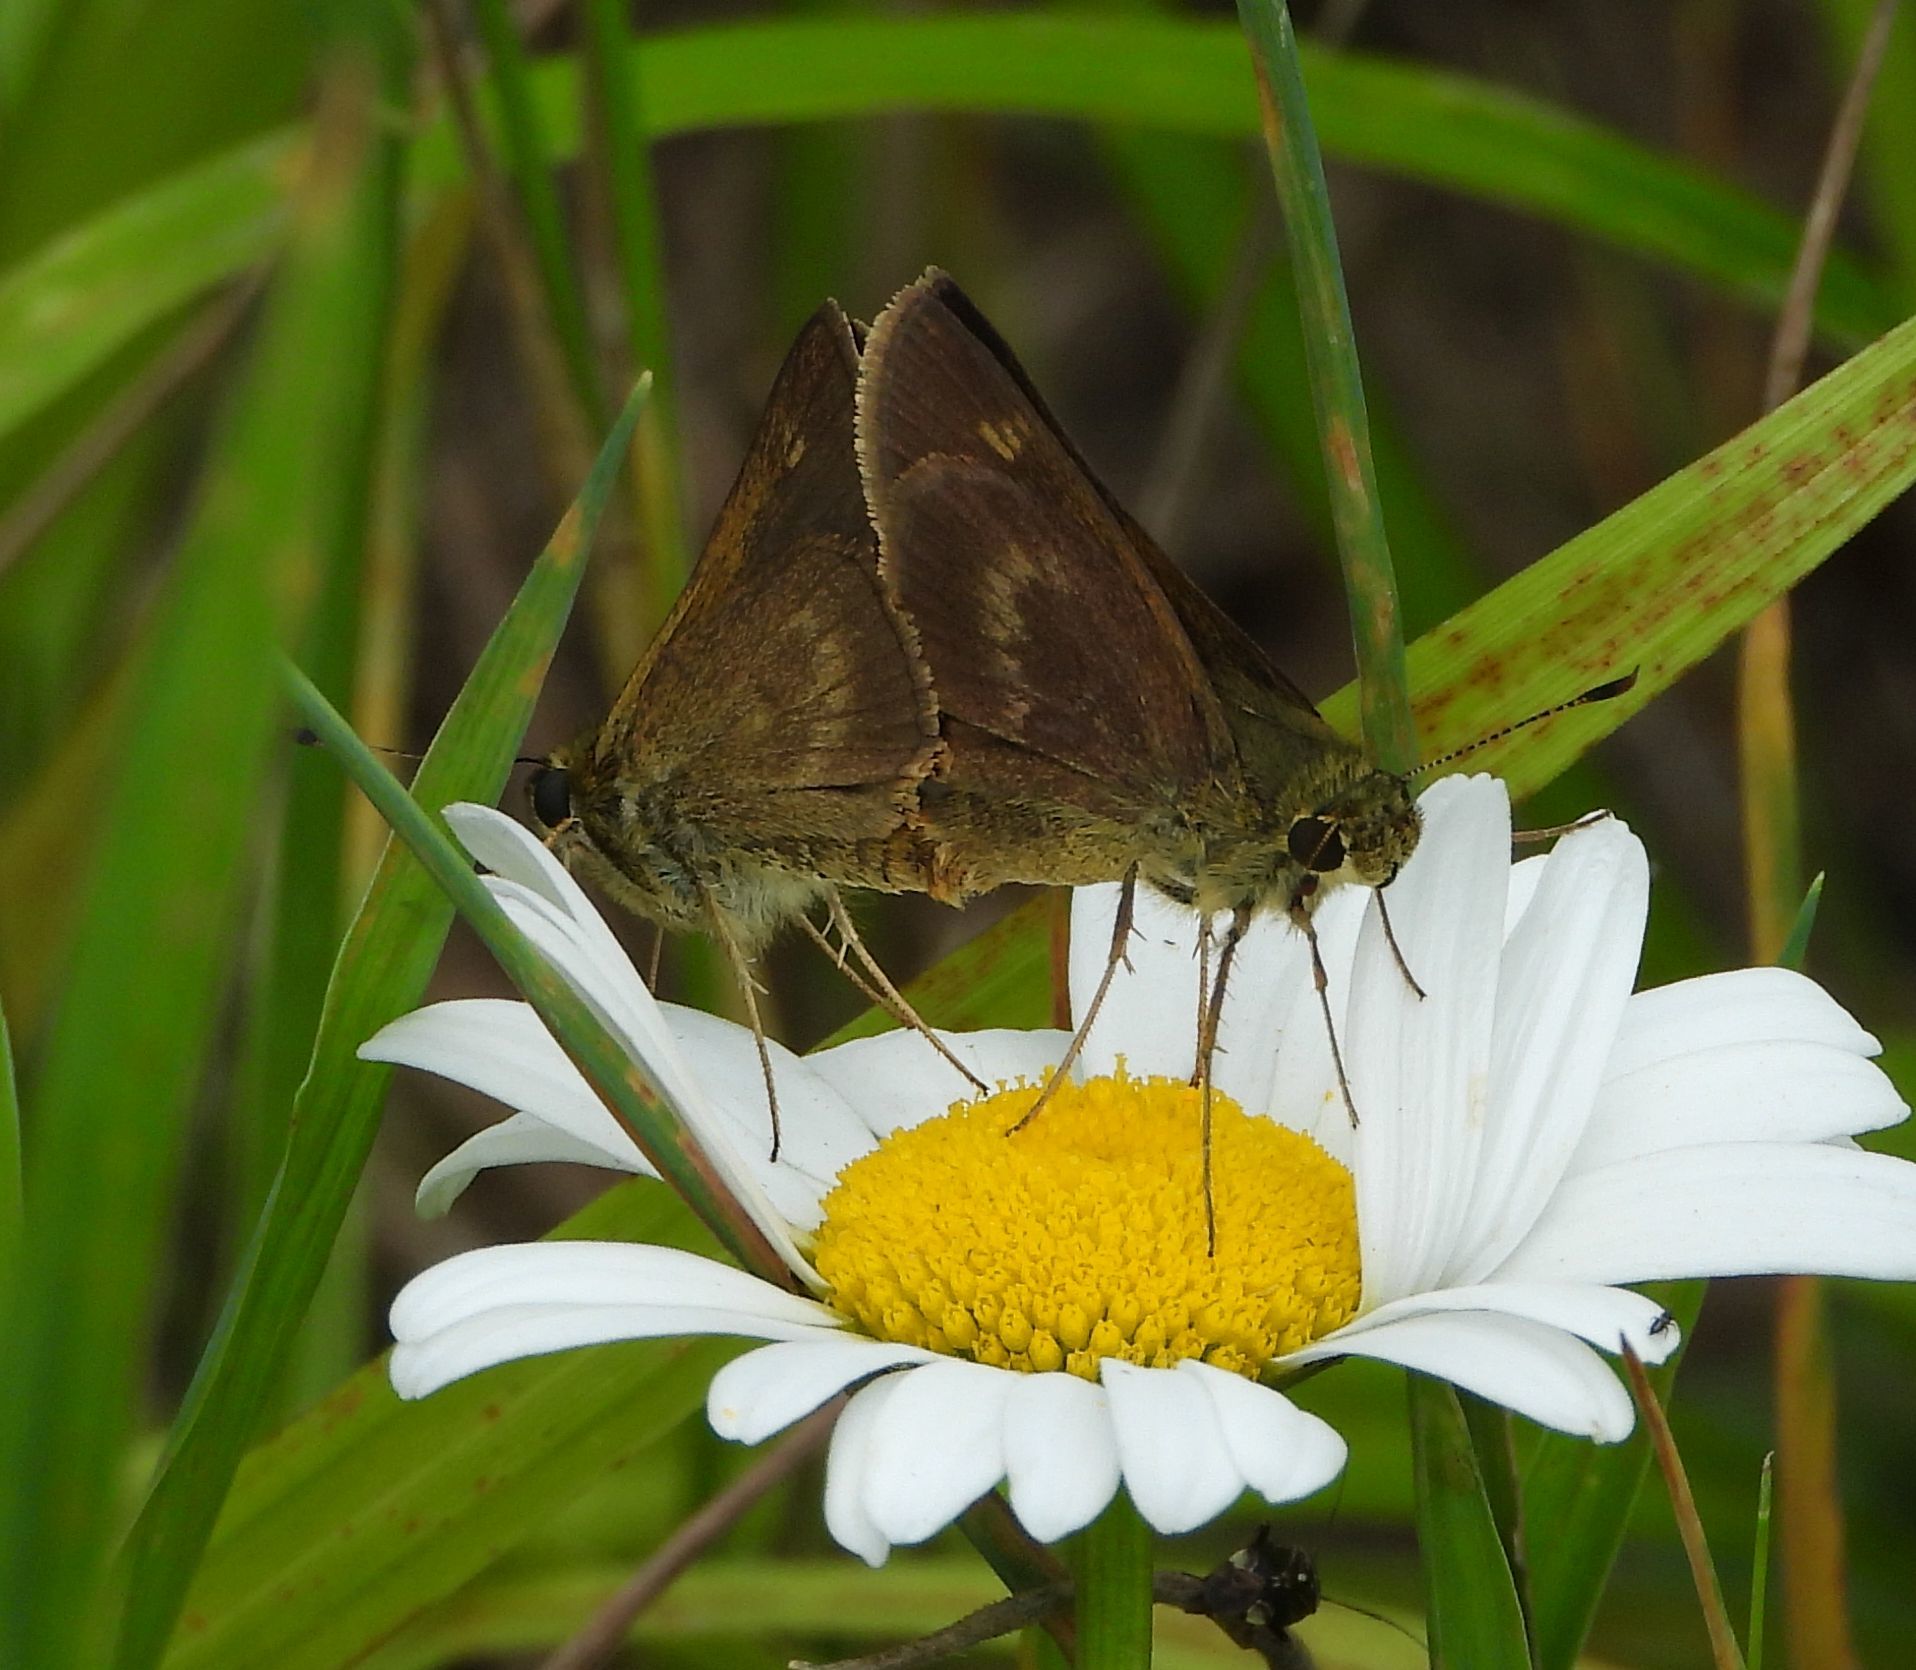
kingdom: Animalia
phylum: Arthropoda
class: Insecta
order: Lepidoptera
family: Hesperiidae
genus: Polites
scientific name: Polites egeremet
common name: Northern broken-dash
